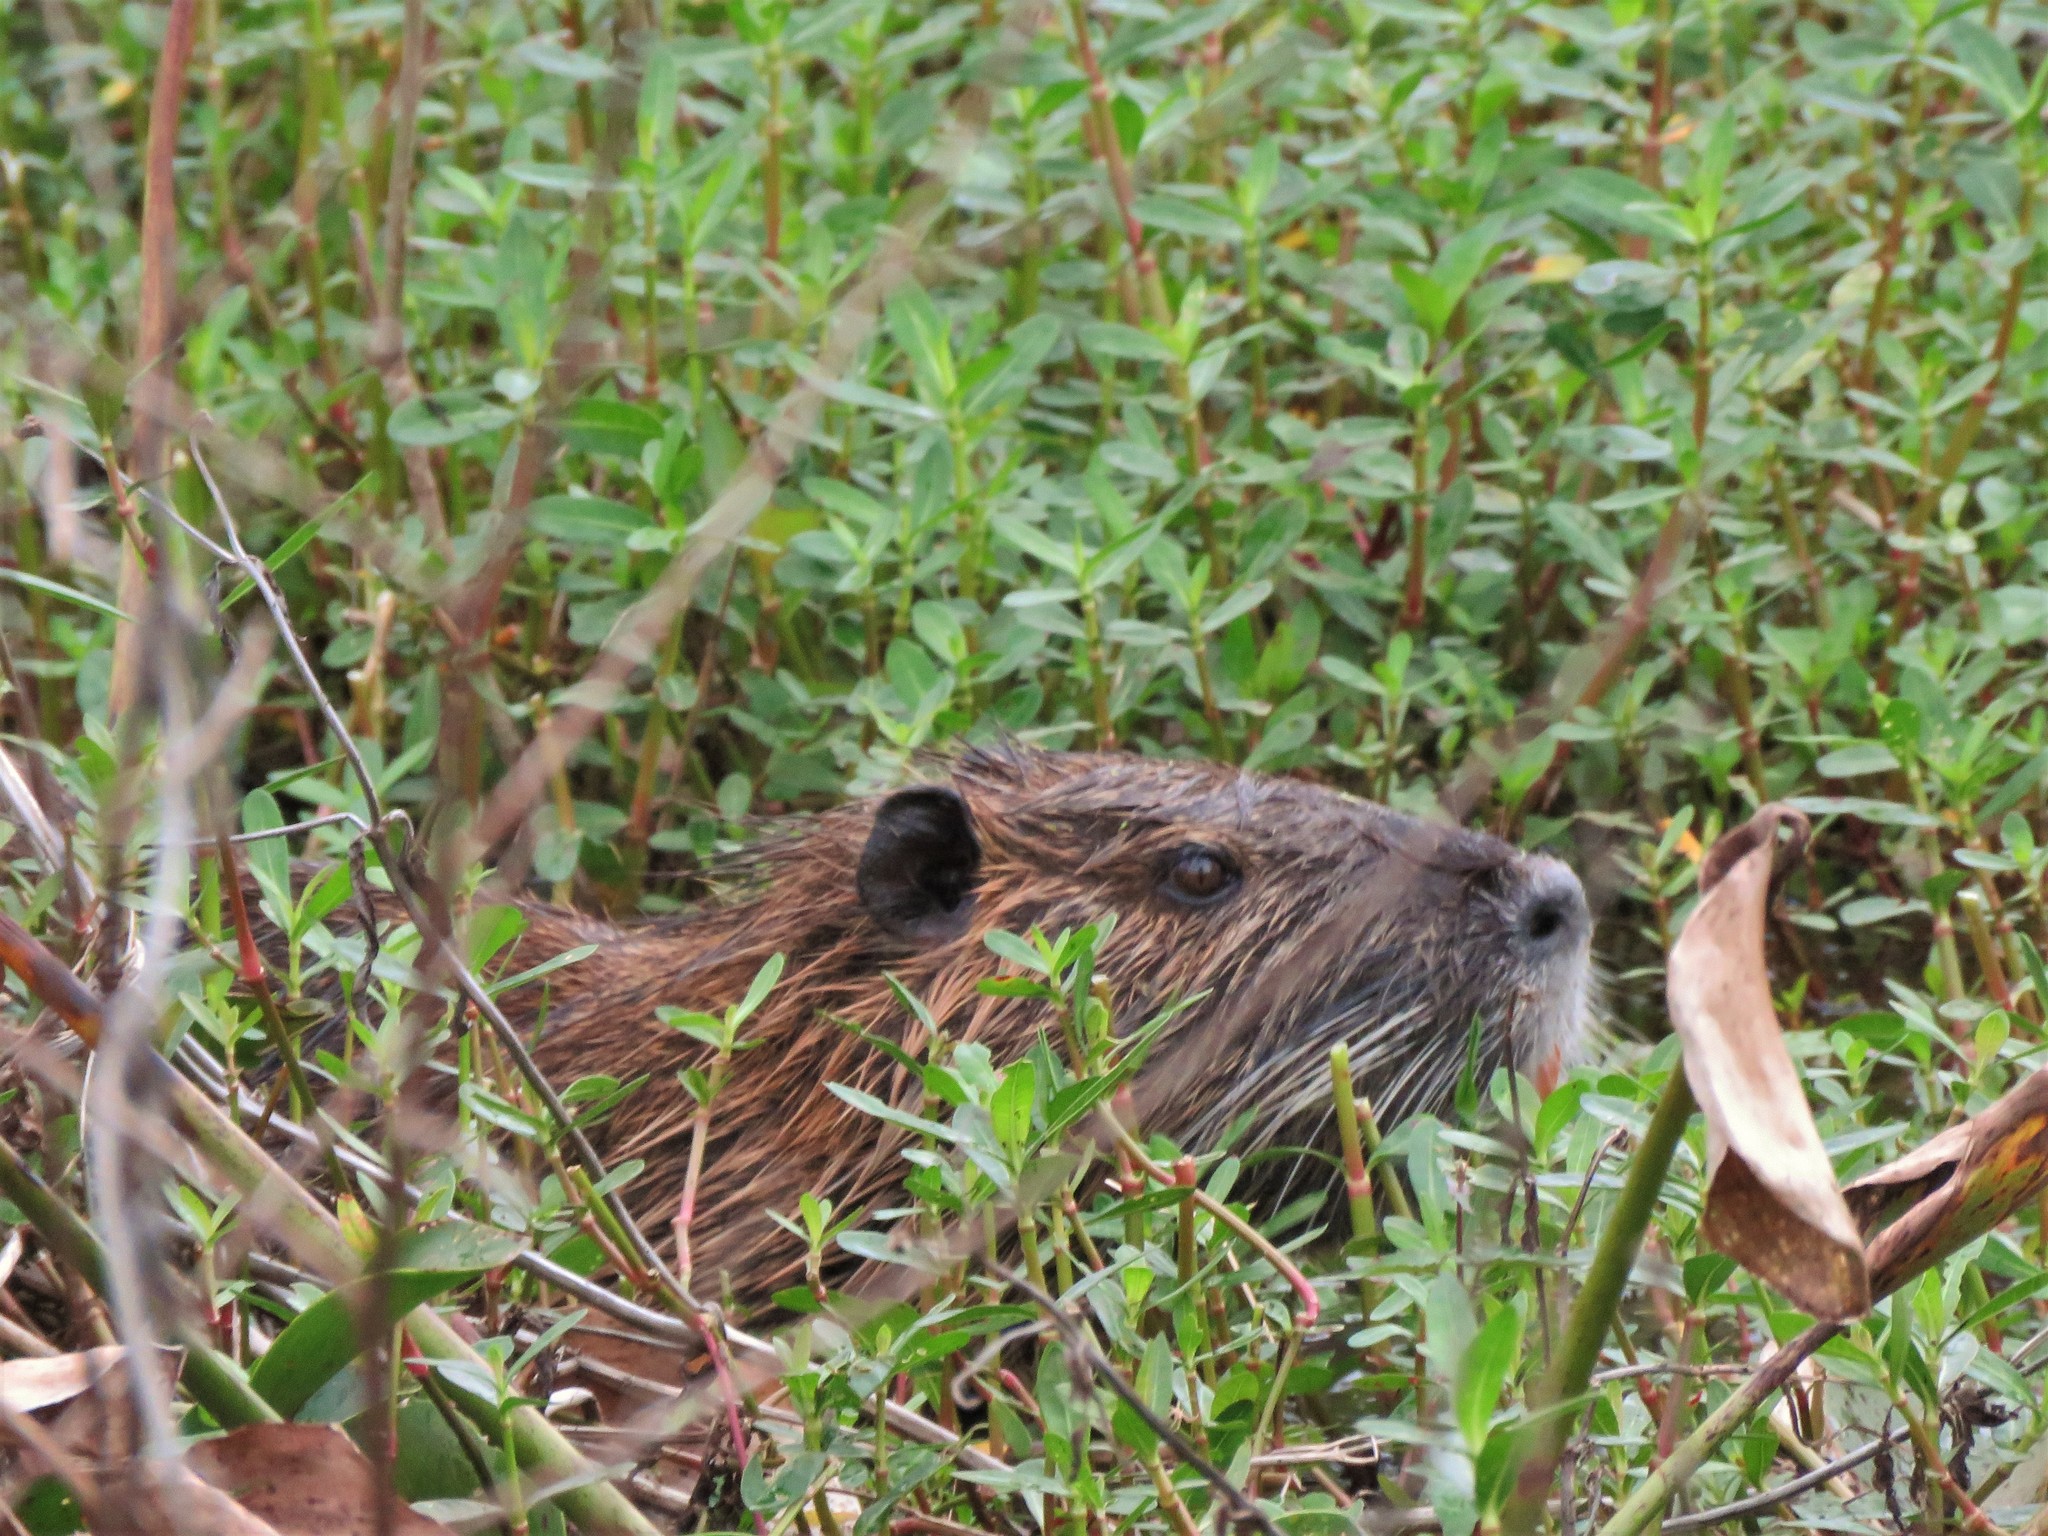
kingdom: Animalia
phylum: Chordata
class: Mammalia
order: Rodentia
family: Myocastoridae
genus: Myocastor
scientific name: Myocastor coypus
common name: Coypu
